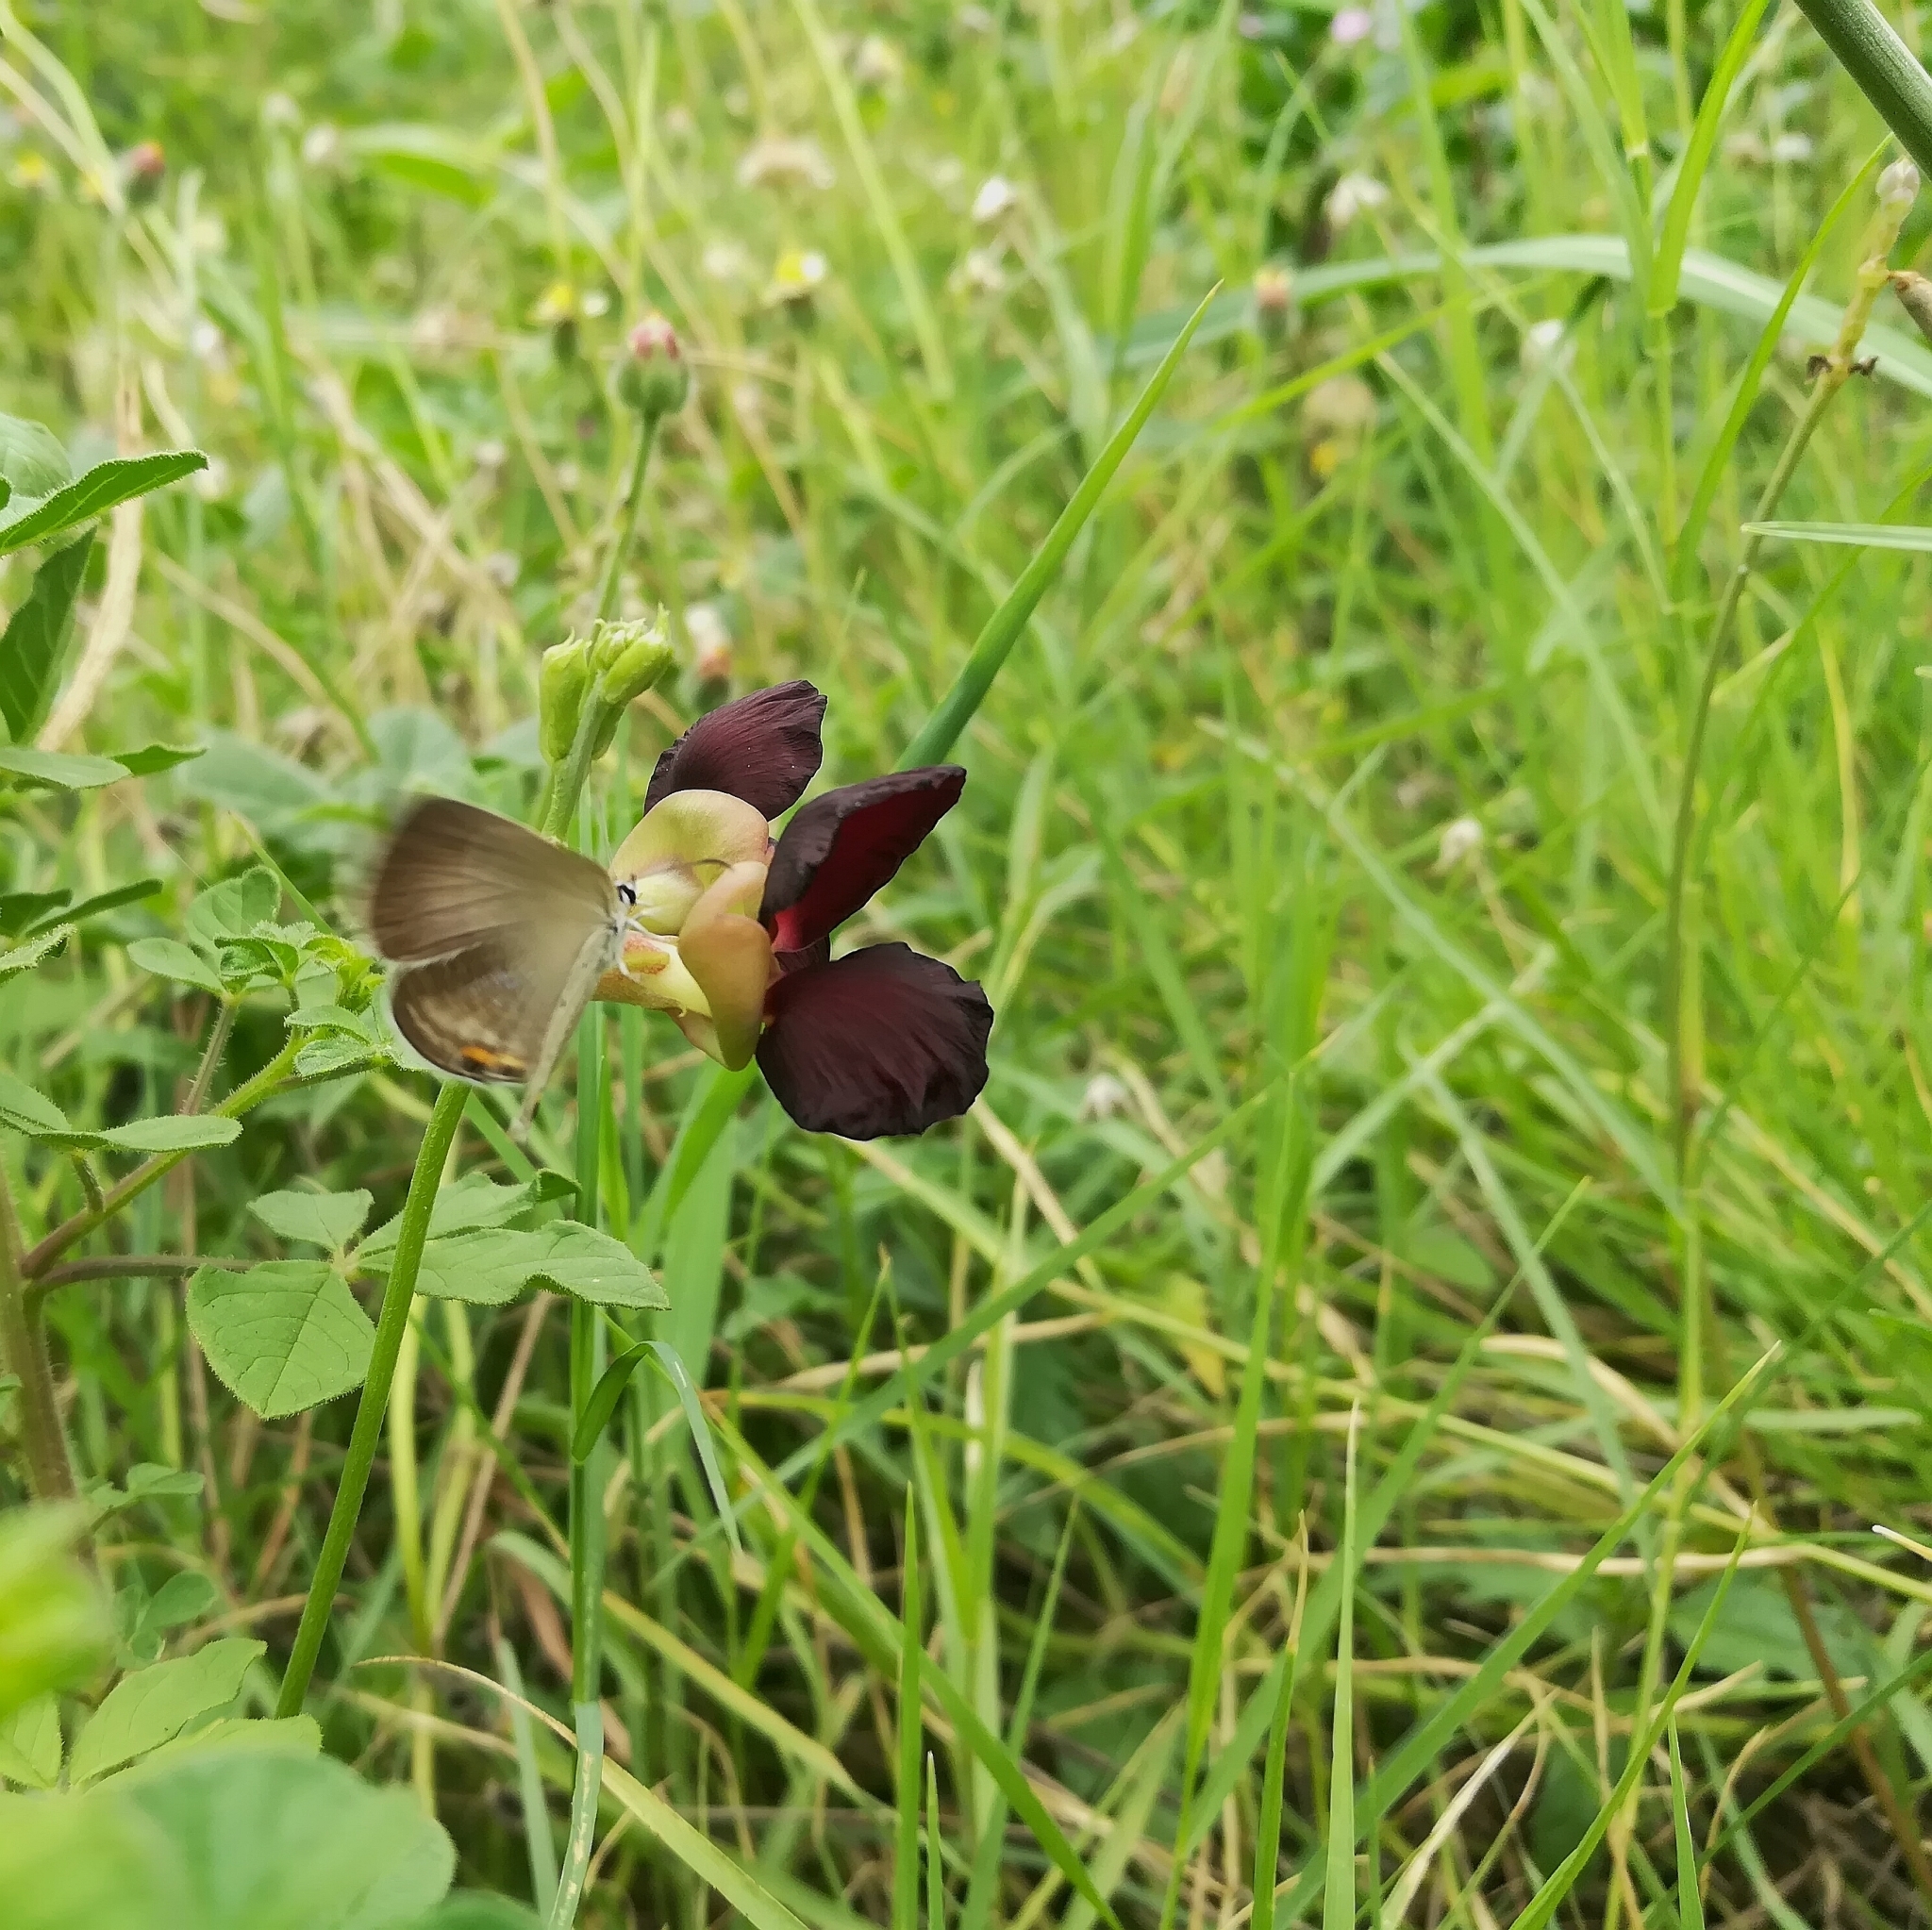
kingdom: Plantae
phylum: Tracheophyta
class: Magnoliopsida
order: Fabales
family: Fabaceae
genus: Macroptilium
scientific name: Macroptilium atropurpureum
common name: Purple bushbean
